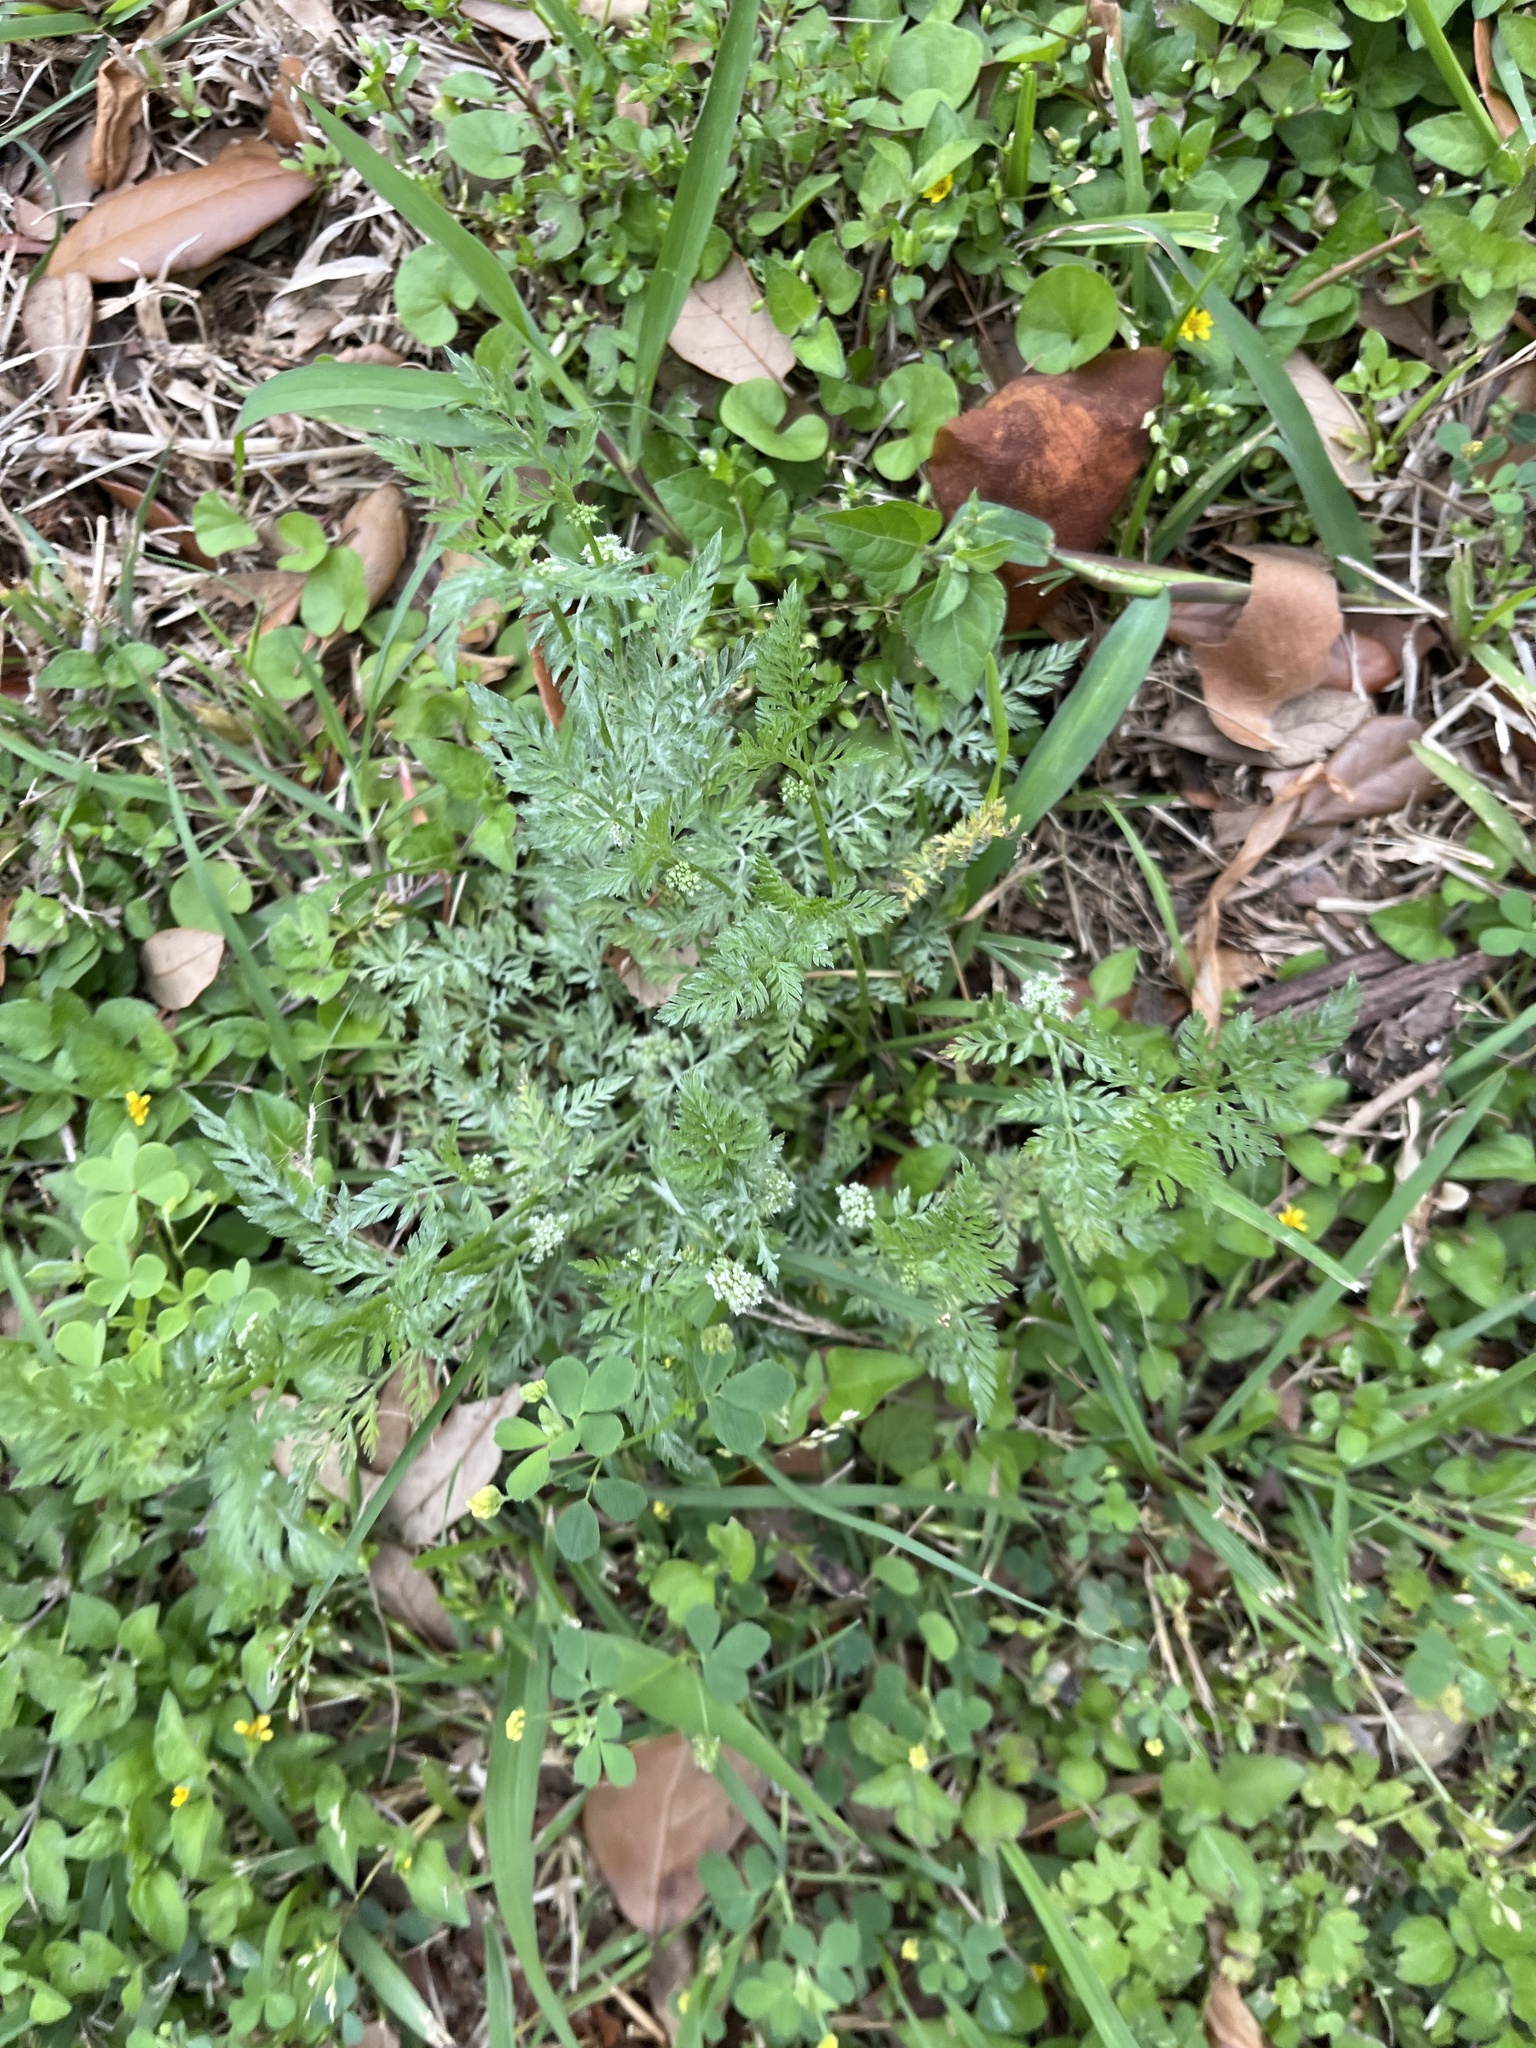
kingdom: Plantae
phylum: Tracheophyta
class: Magnoliopsida
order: Apiales
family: Apiaceae
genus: Torilis
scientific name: Torilis nodosa
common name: Knotted hedge-parsley
